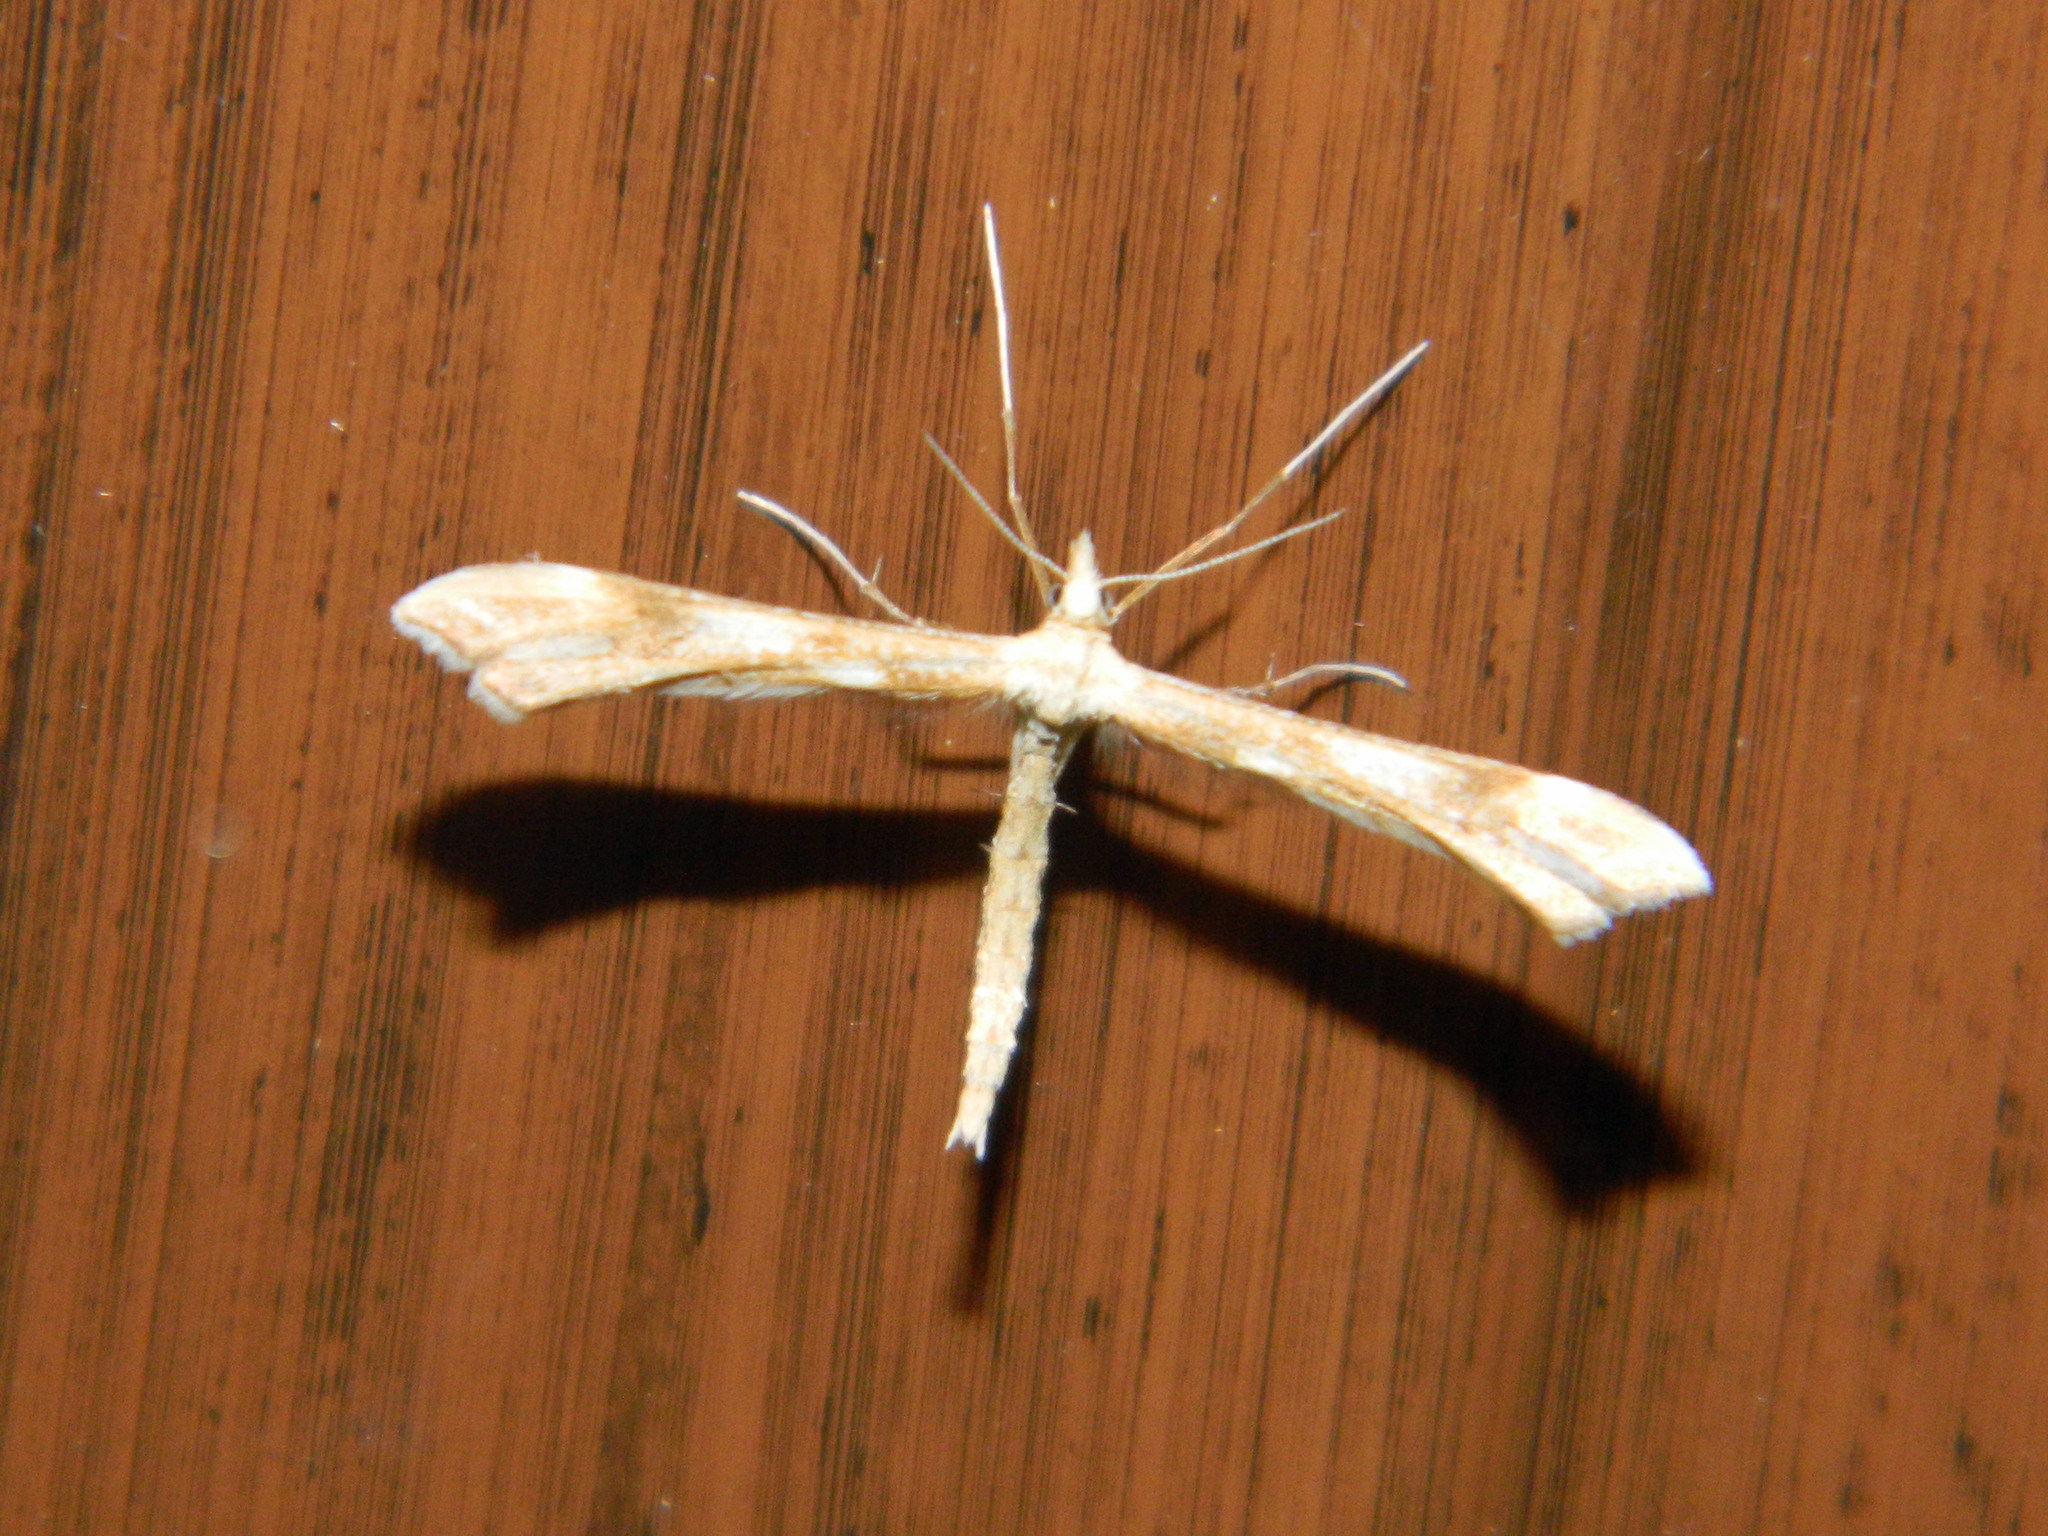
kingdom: Animalia
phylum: Arthropoda
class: Insecta
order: Lepidoptera
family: Pterophoridae
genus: Gillmeria
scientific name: Gillmeria pallidactyla
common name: Yarrow plume
